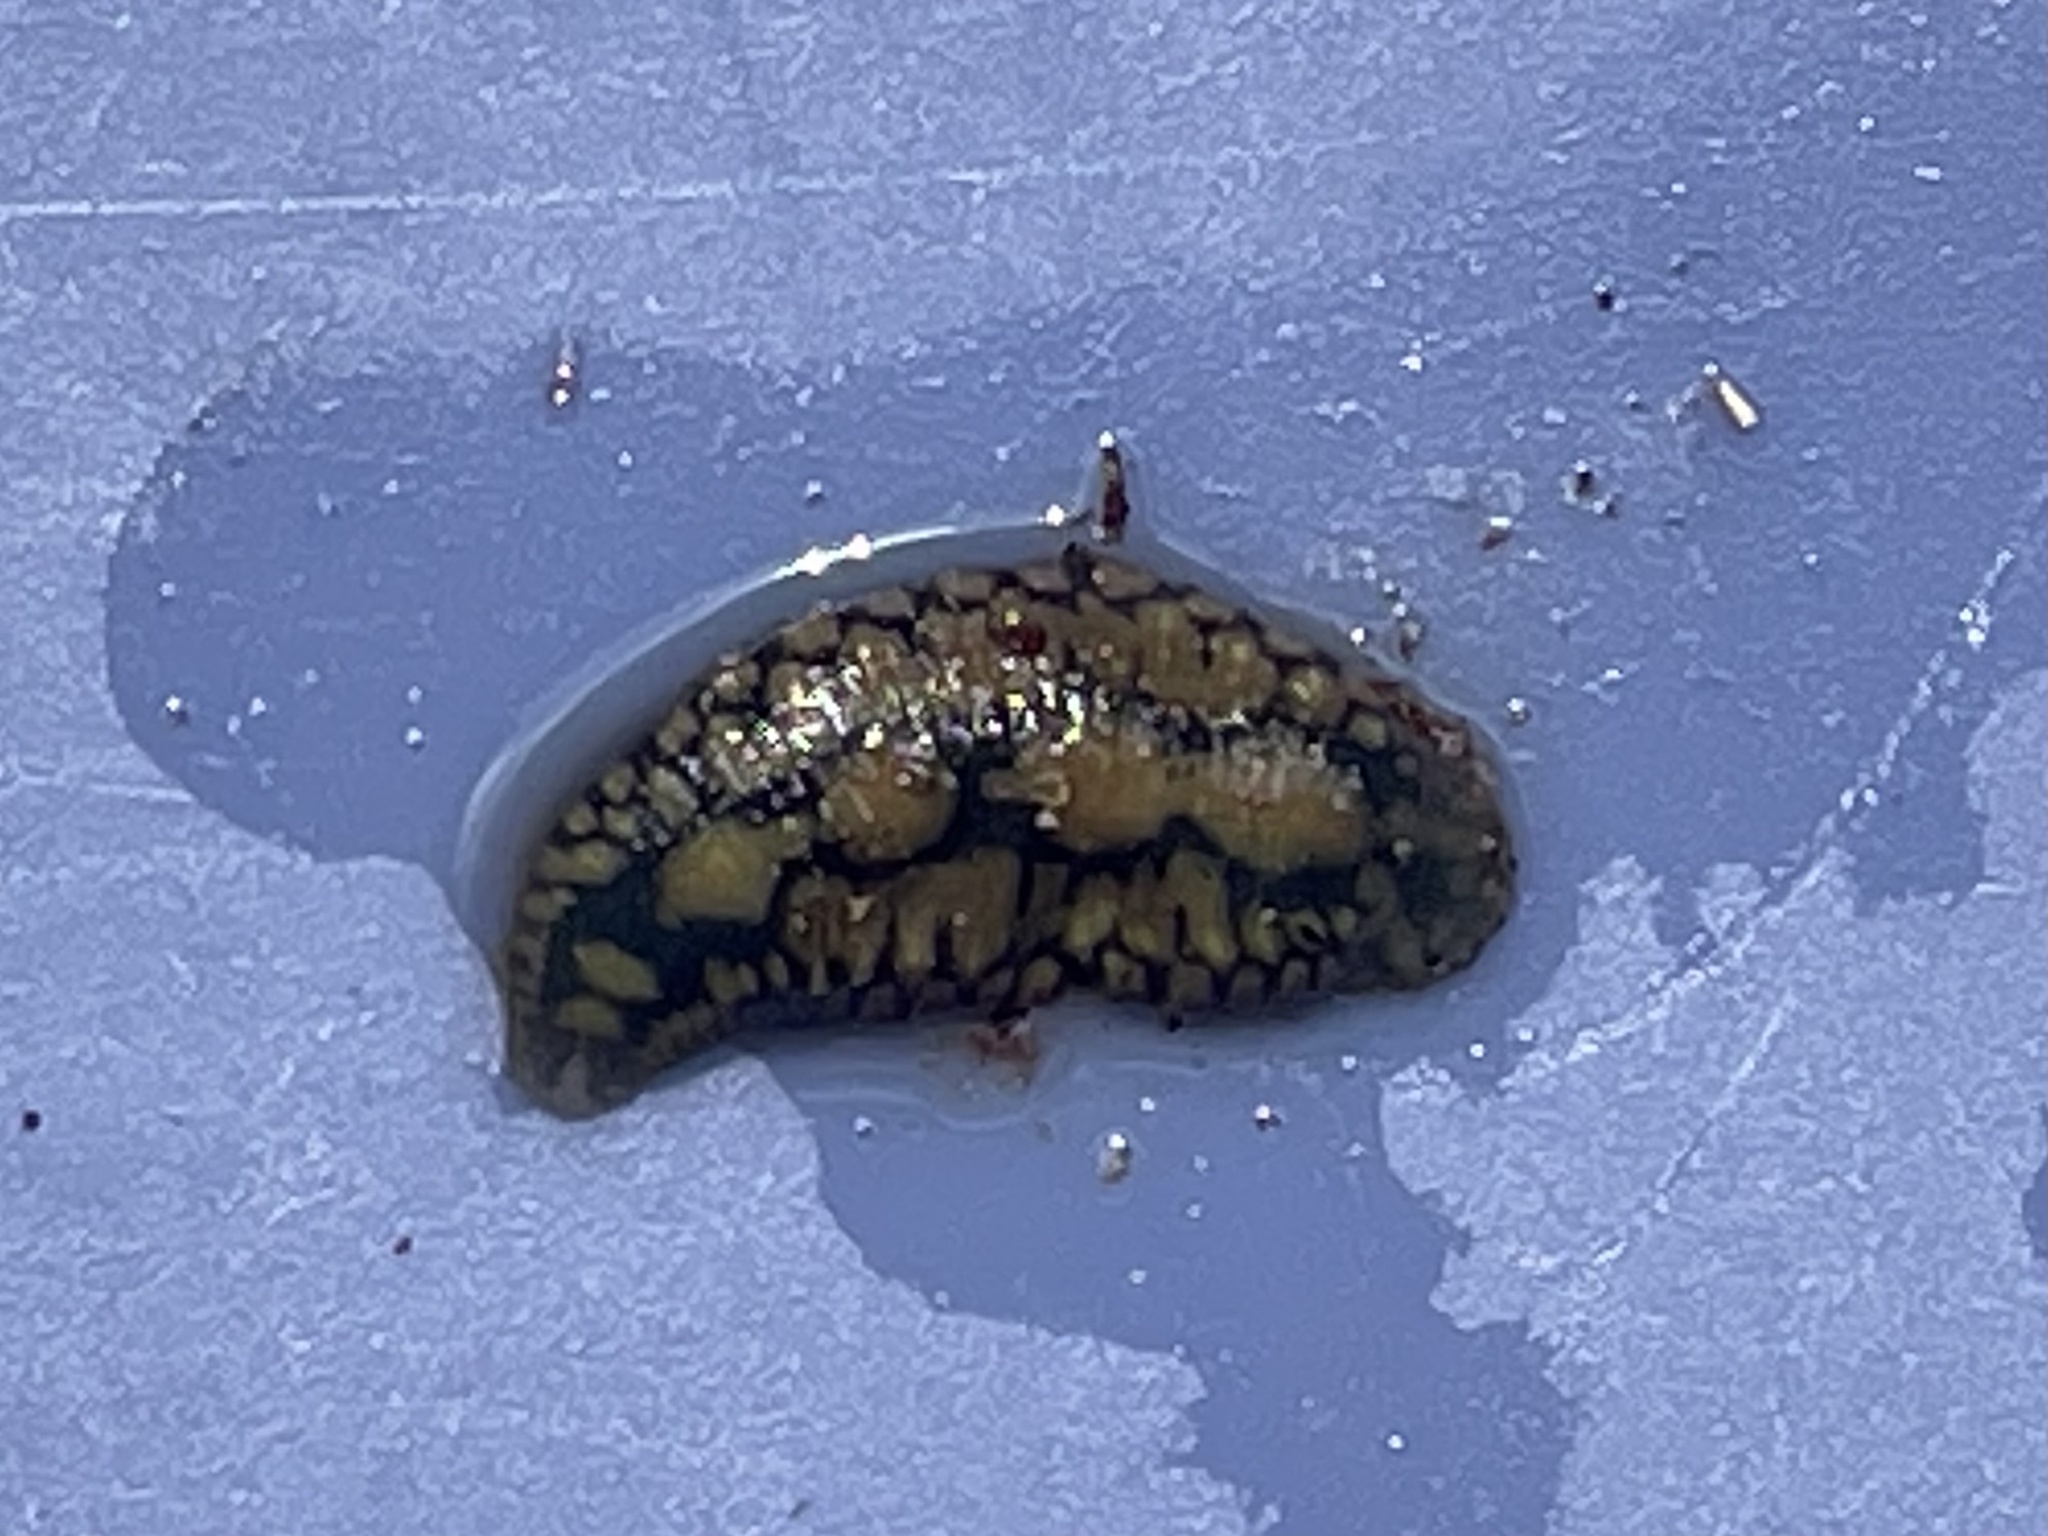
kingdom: Animalia
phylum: Annelida
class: Clitellata
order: Rhynchobdellida
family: Glossiphoniidae
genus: Placobdella
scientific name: Placobdella parasitica
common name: Smooth turtle leech
